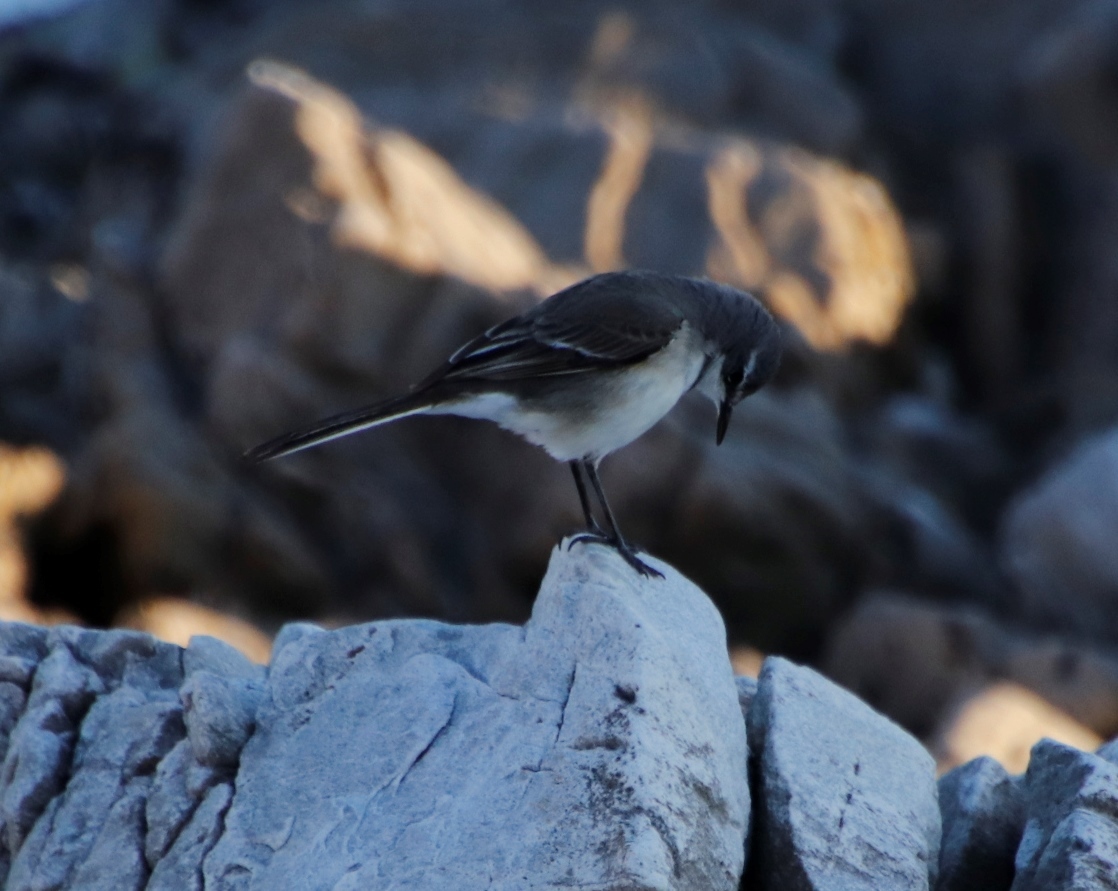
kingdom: Animalia
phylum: Chordata
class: Aves
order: Passeriformes
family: Motacillidae
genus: Motacilla
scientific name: Motacilla capensis
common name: Cape wagtail
